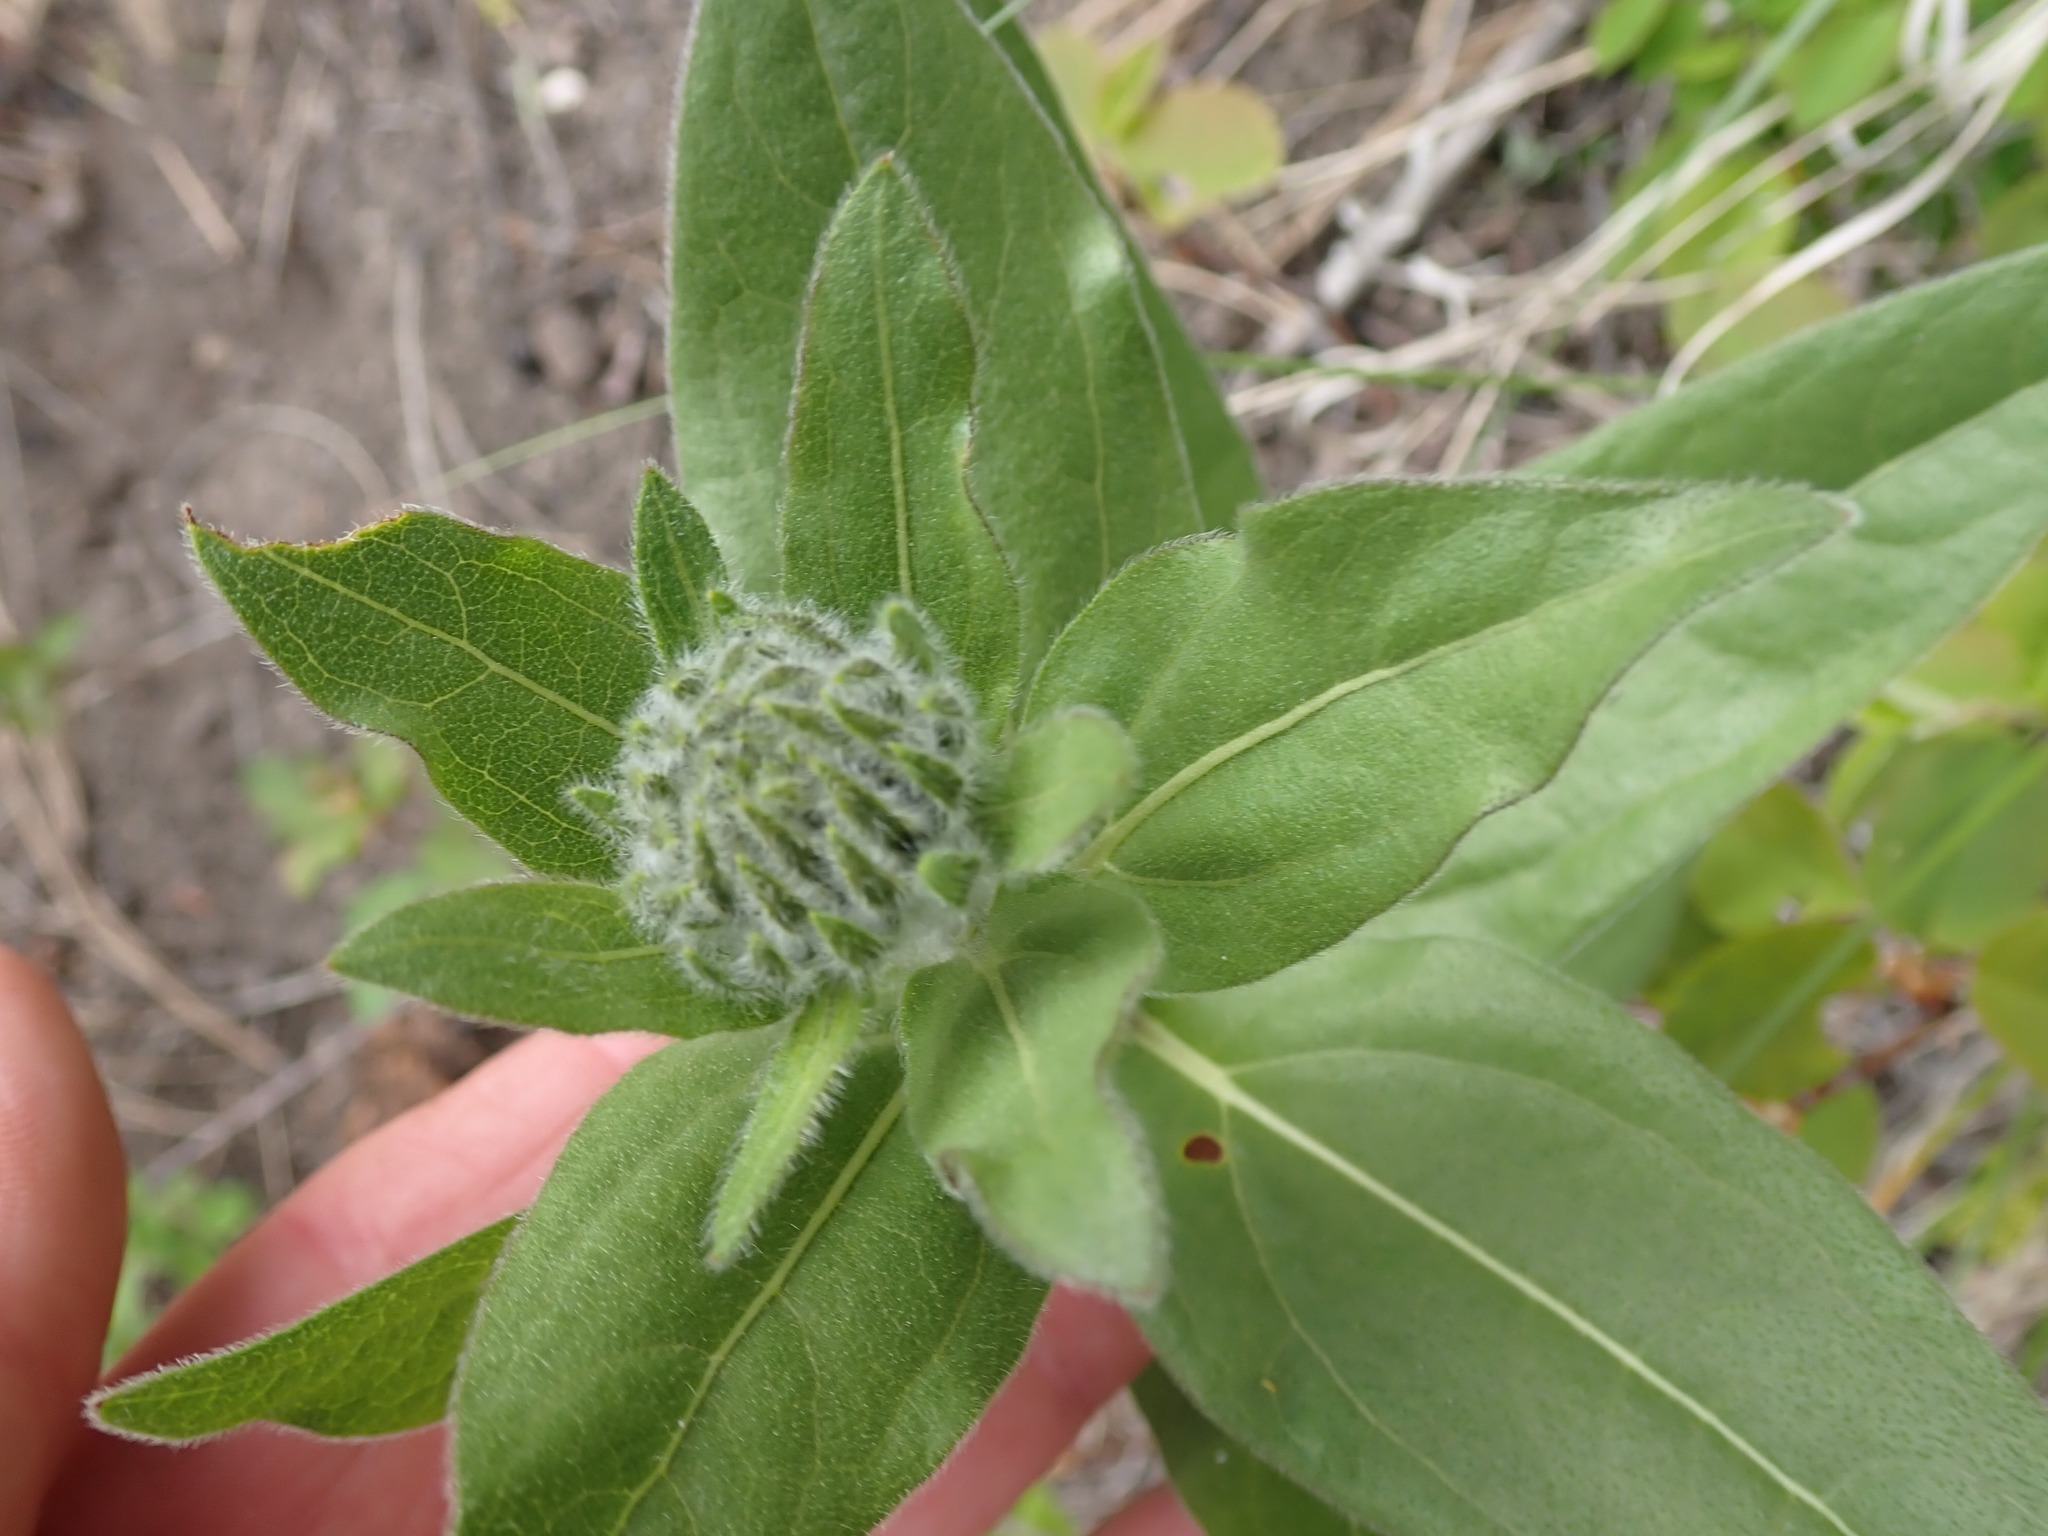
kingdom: Plantae
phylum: Tracheophyta
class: Magnoliopsida
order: Asterales
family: Asteraceae
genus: Helianthella
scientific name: Helianthella uniflora
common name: Rocky mountain dwarf sunflower
